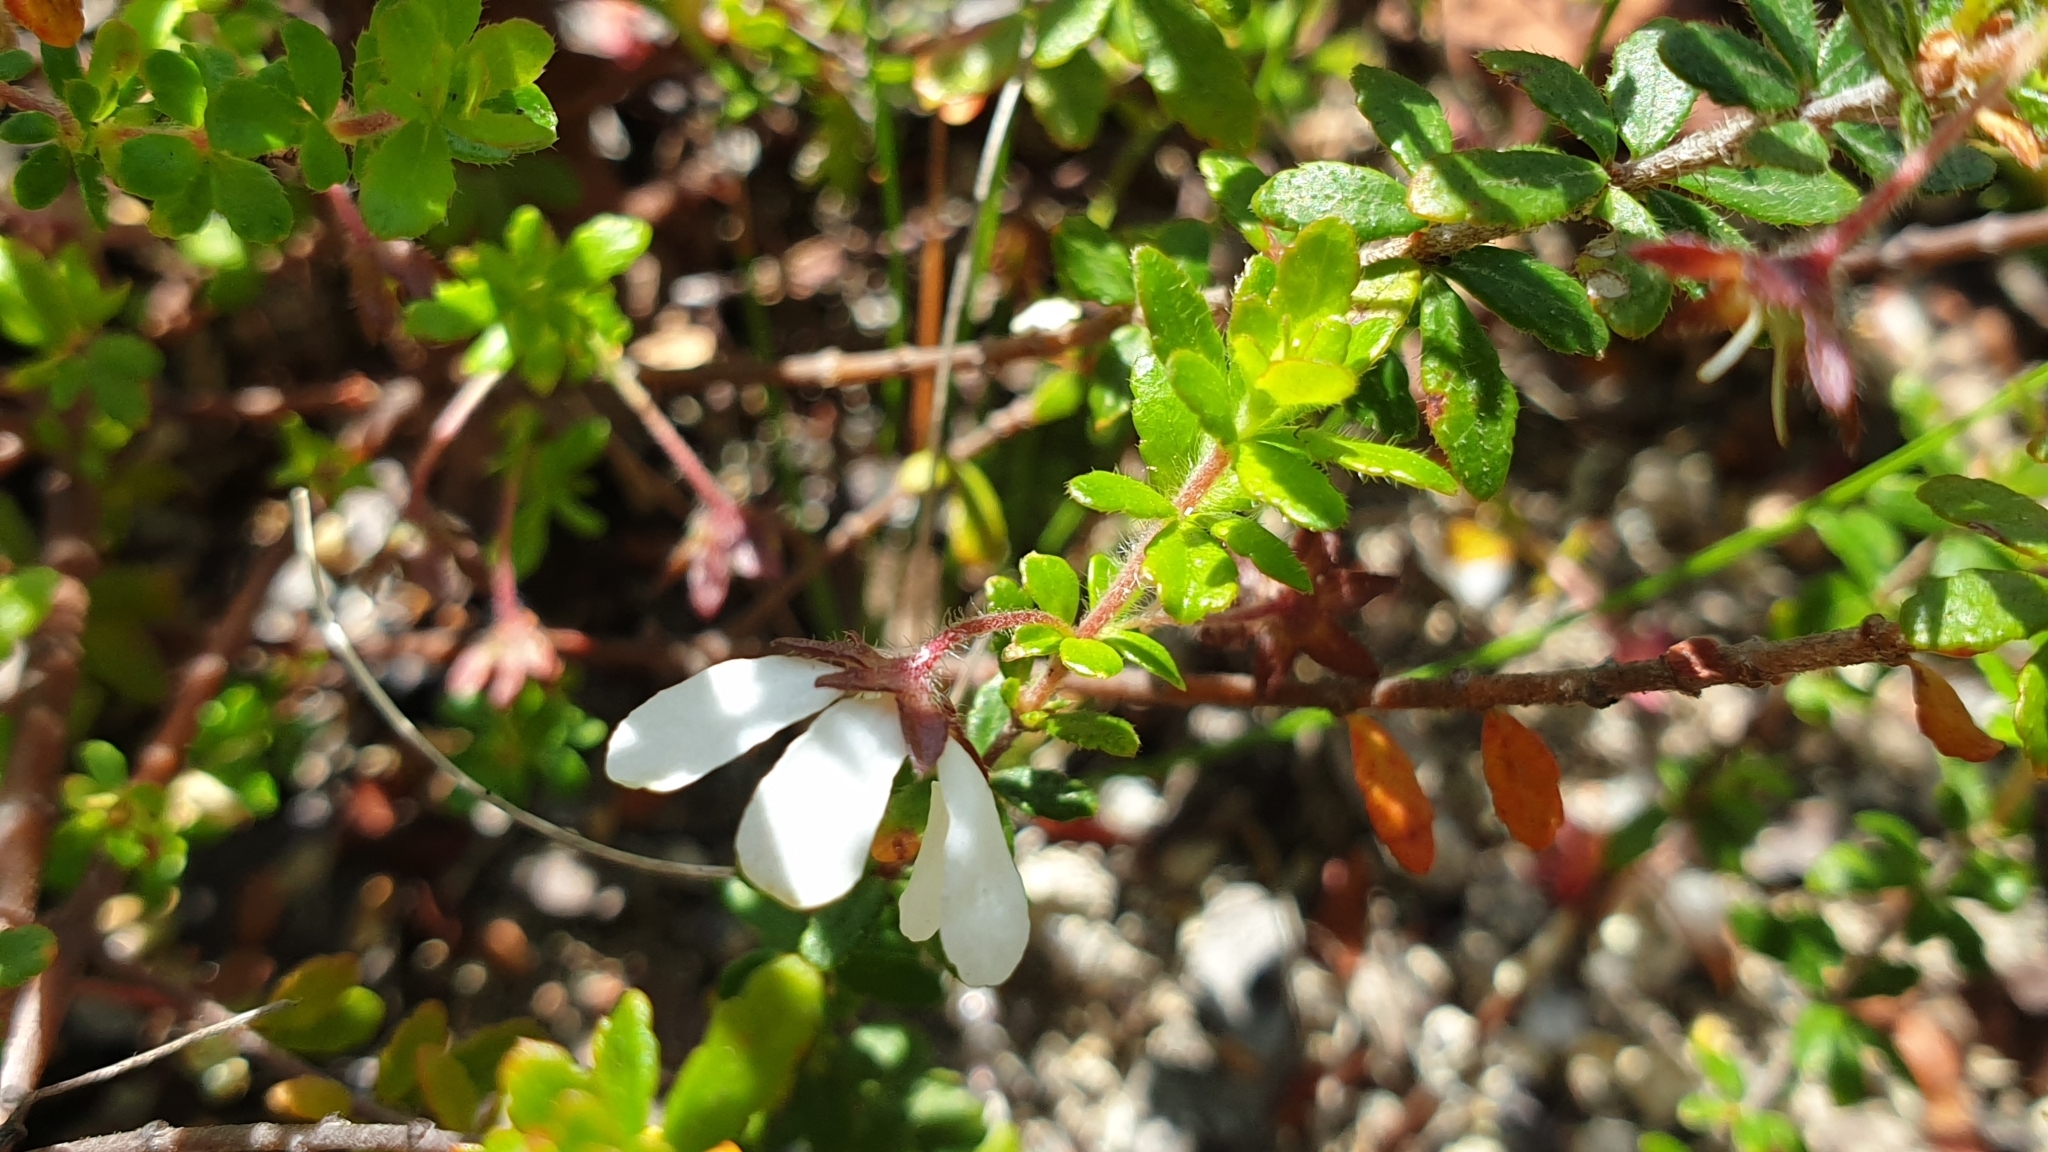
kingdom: Plantae
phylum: Tracheophyta
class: Magnoliopsida
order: Oxalidales
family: Cunoniaceae
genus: Bauera
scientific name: Bauera rubioides
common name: River-rose
